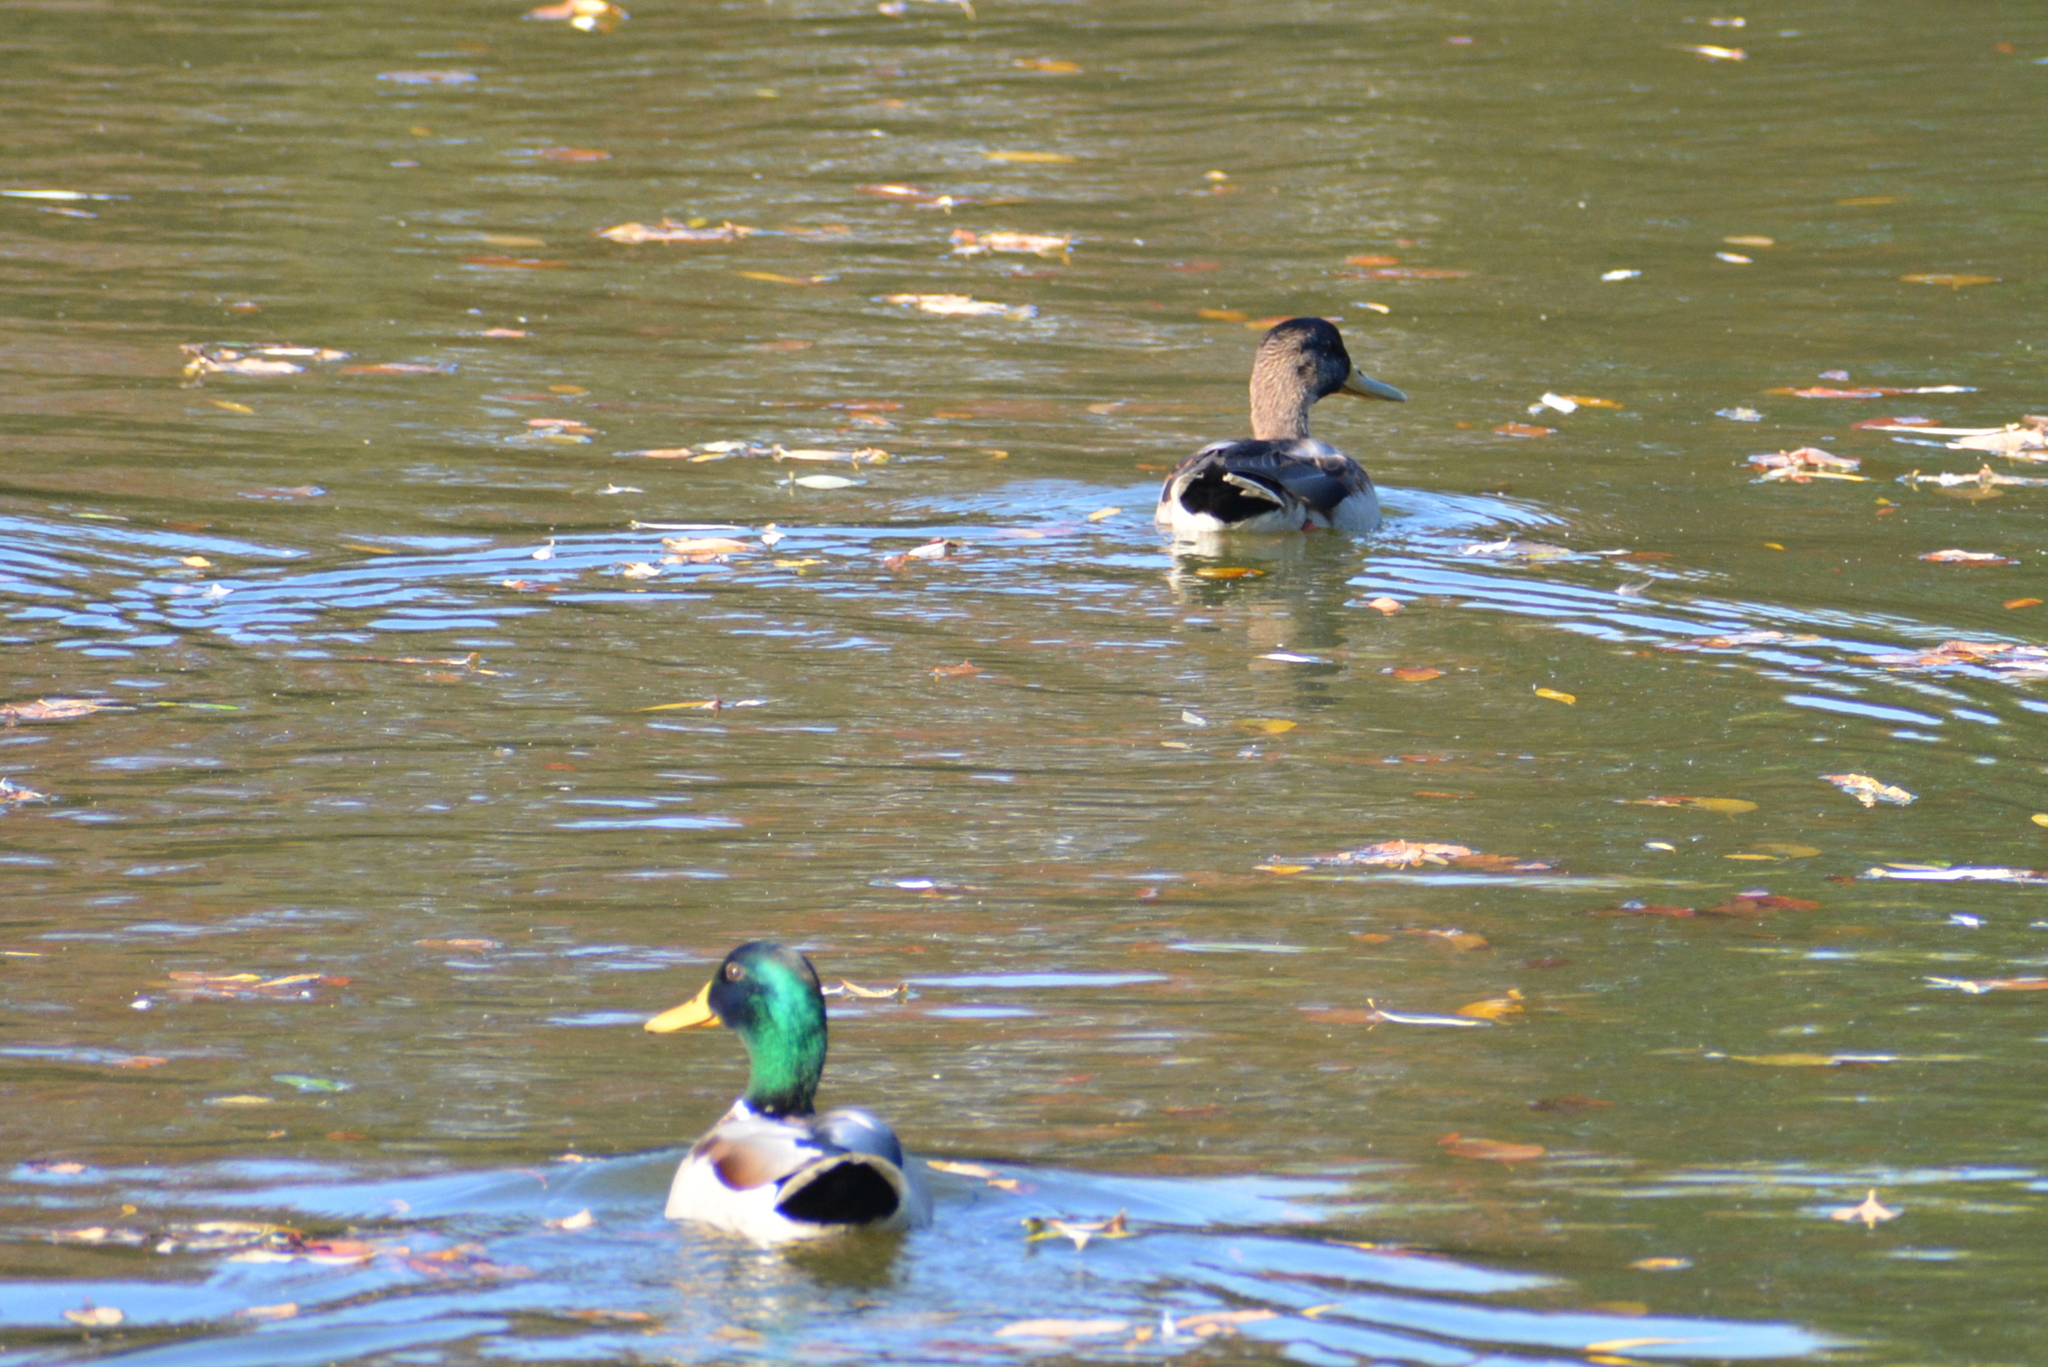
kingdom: Animalia
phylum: Chordata
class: Aves
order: Anseriformes
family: Anatidae
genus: Anas
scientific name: Anas platyrhynchos
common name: Mallard
